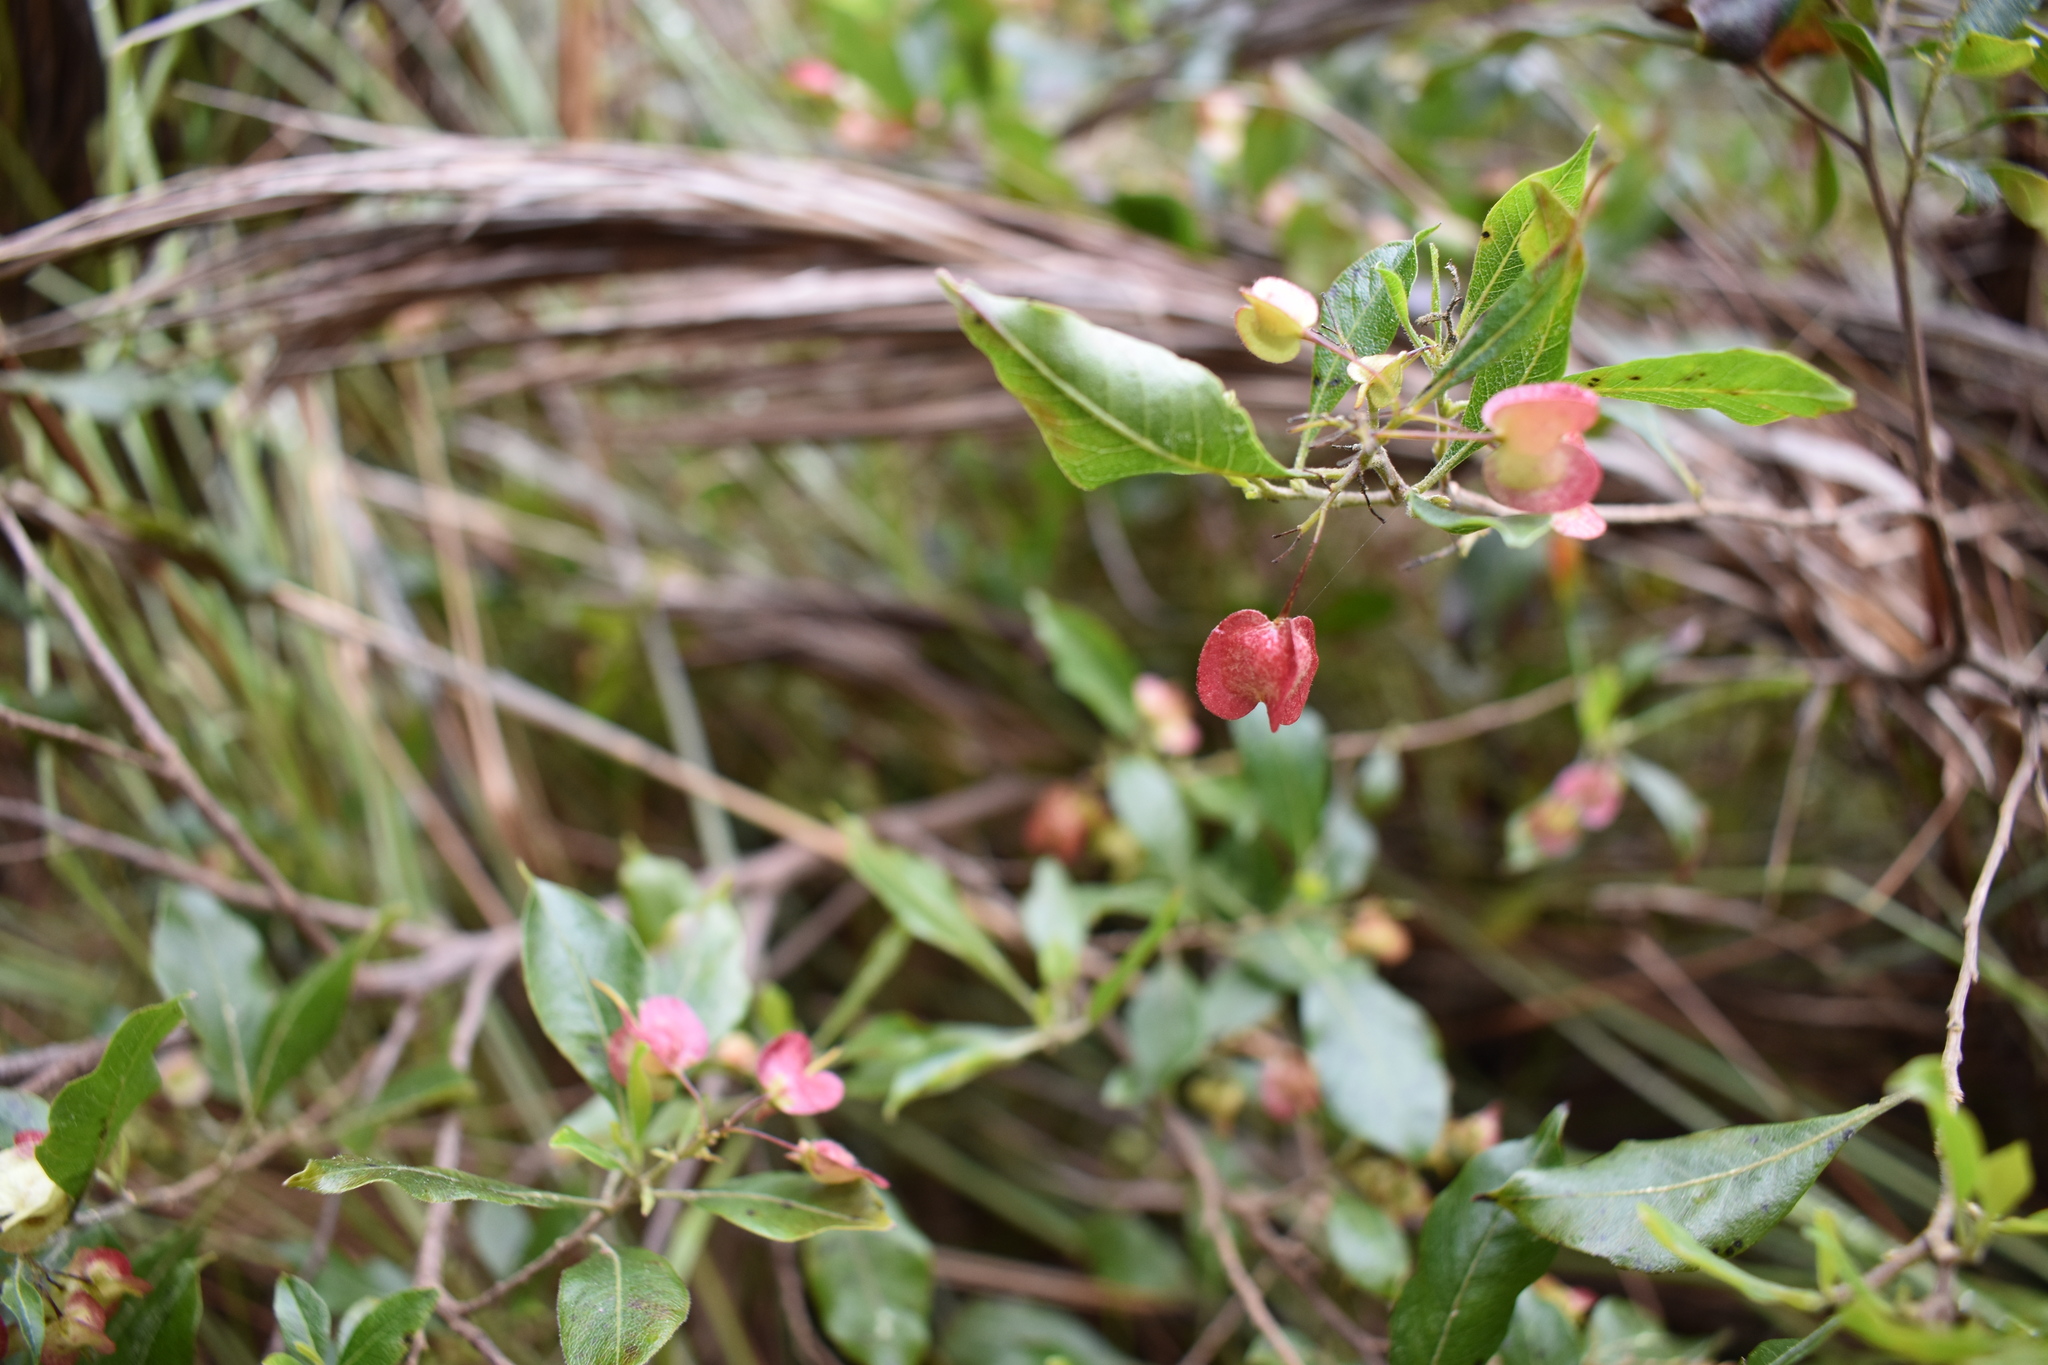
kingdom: Plantae
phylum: Tracheophyta
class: Magnoliopsida
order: Sapindales
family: Sapindaceae
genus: Dodonaea
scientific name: Dodonaea viscosa
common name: Hopbush
